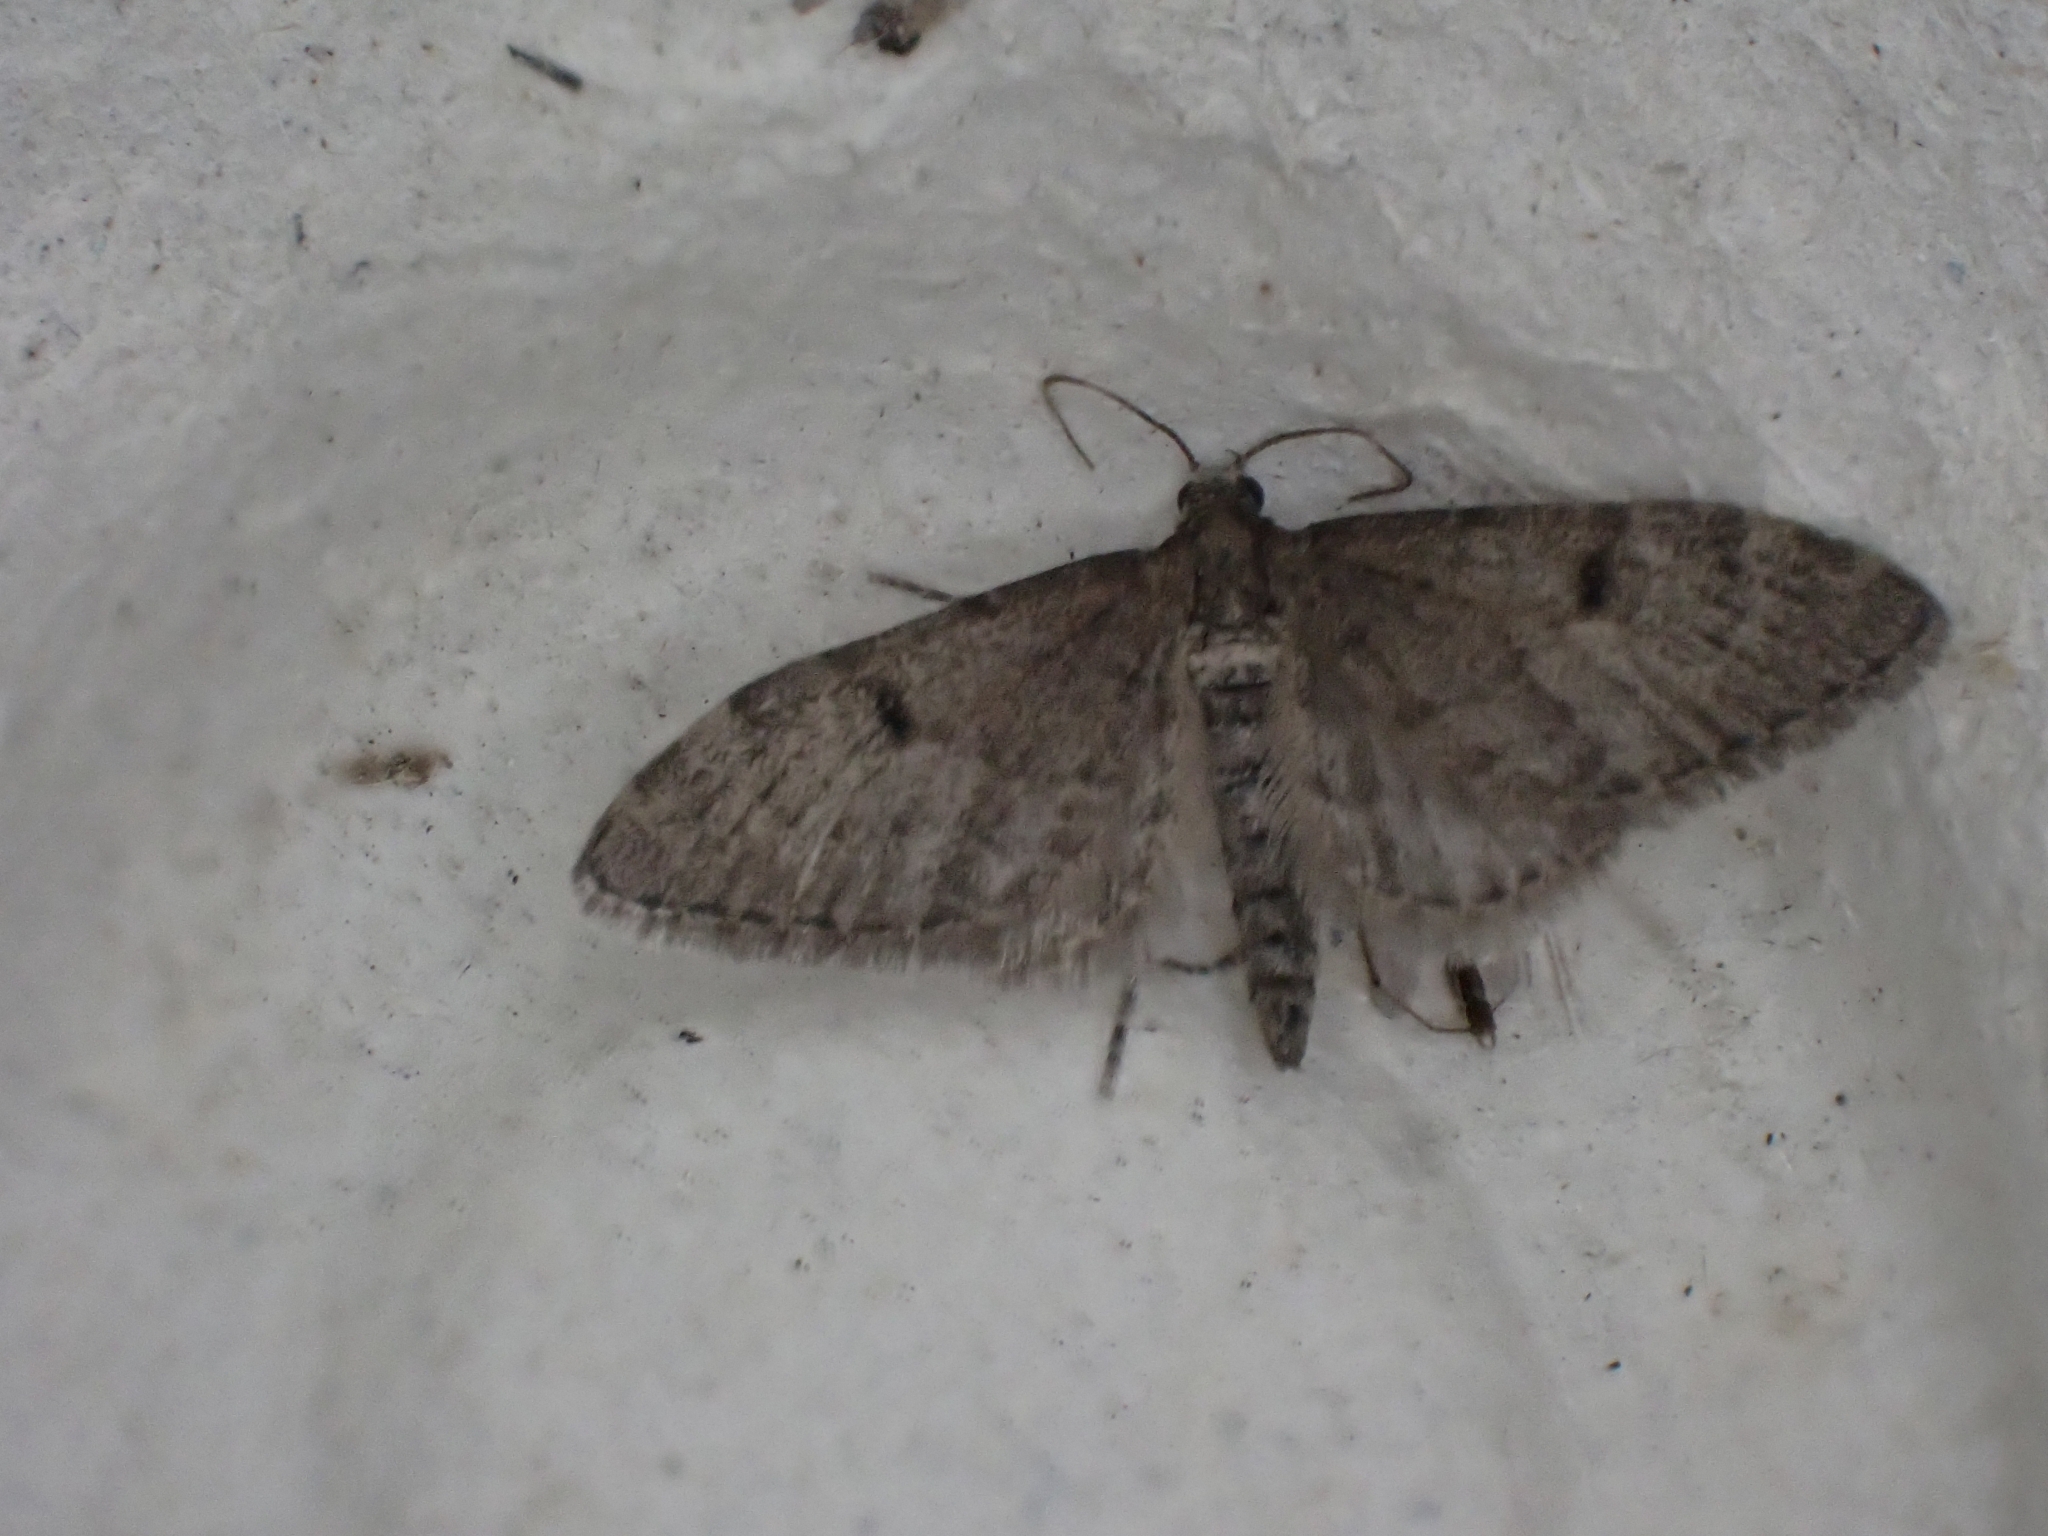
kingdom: Animalia
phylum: Arthropoda
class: Insecta
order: Lepidoptera
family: Geometridae
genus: Eupithecia
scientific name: Eupithecia indigata
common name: Ochreous pug
